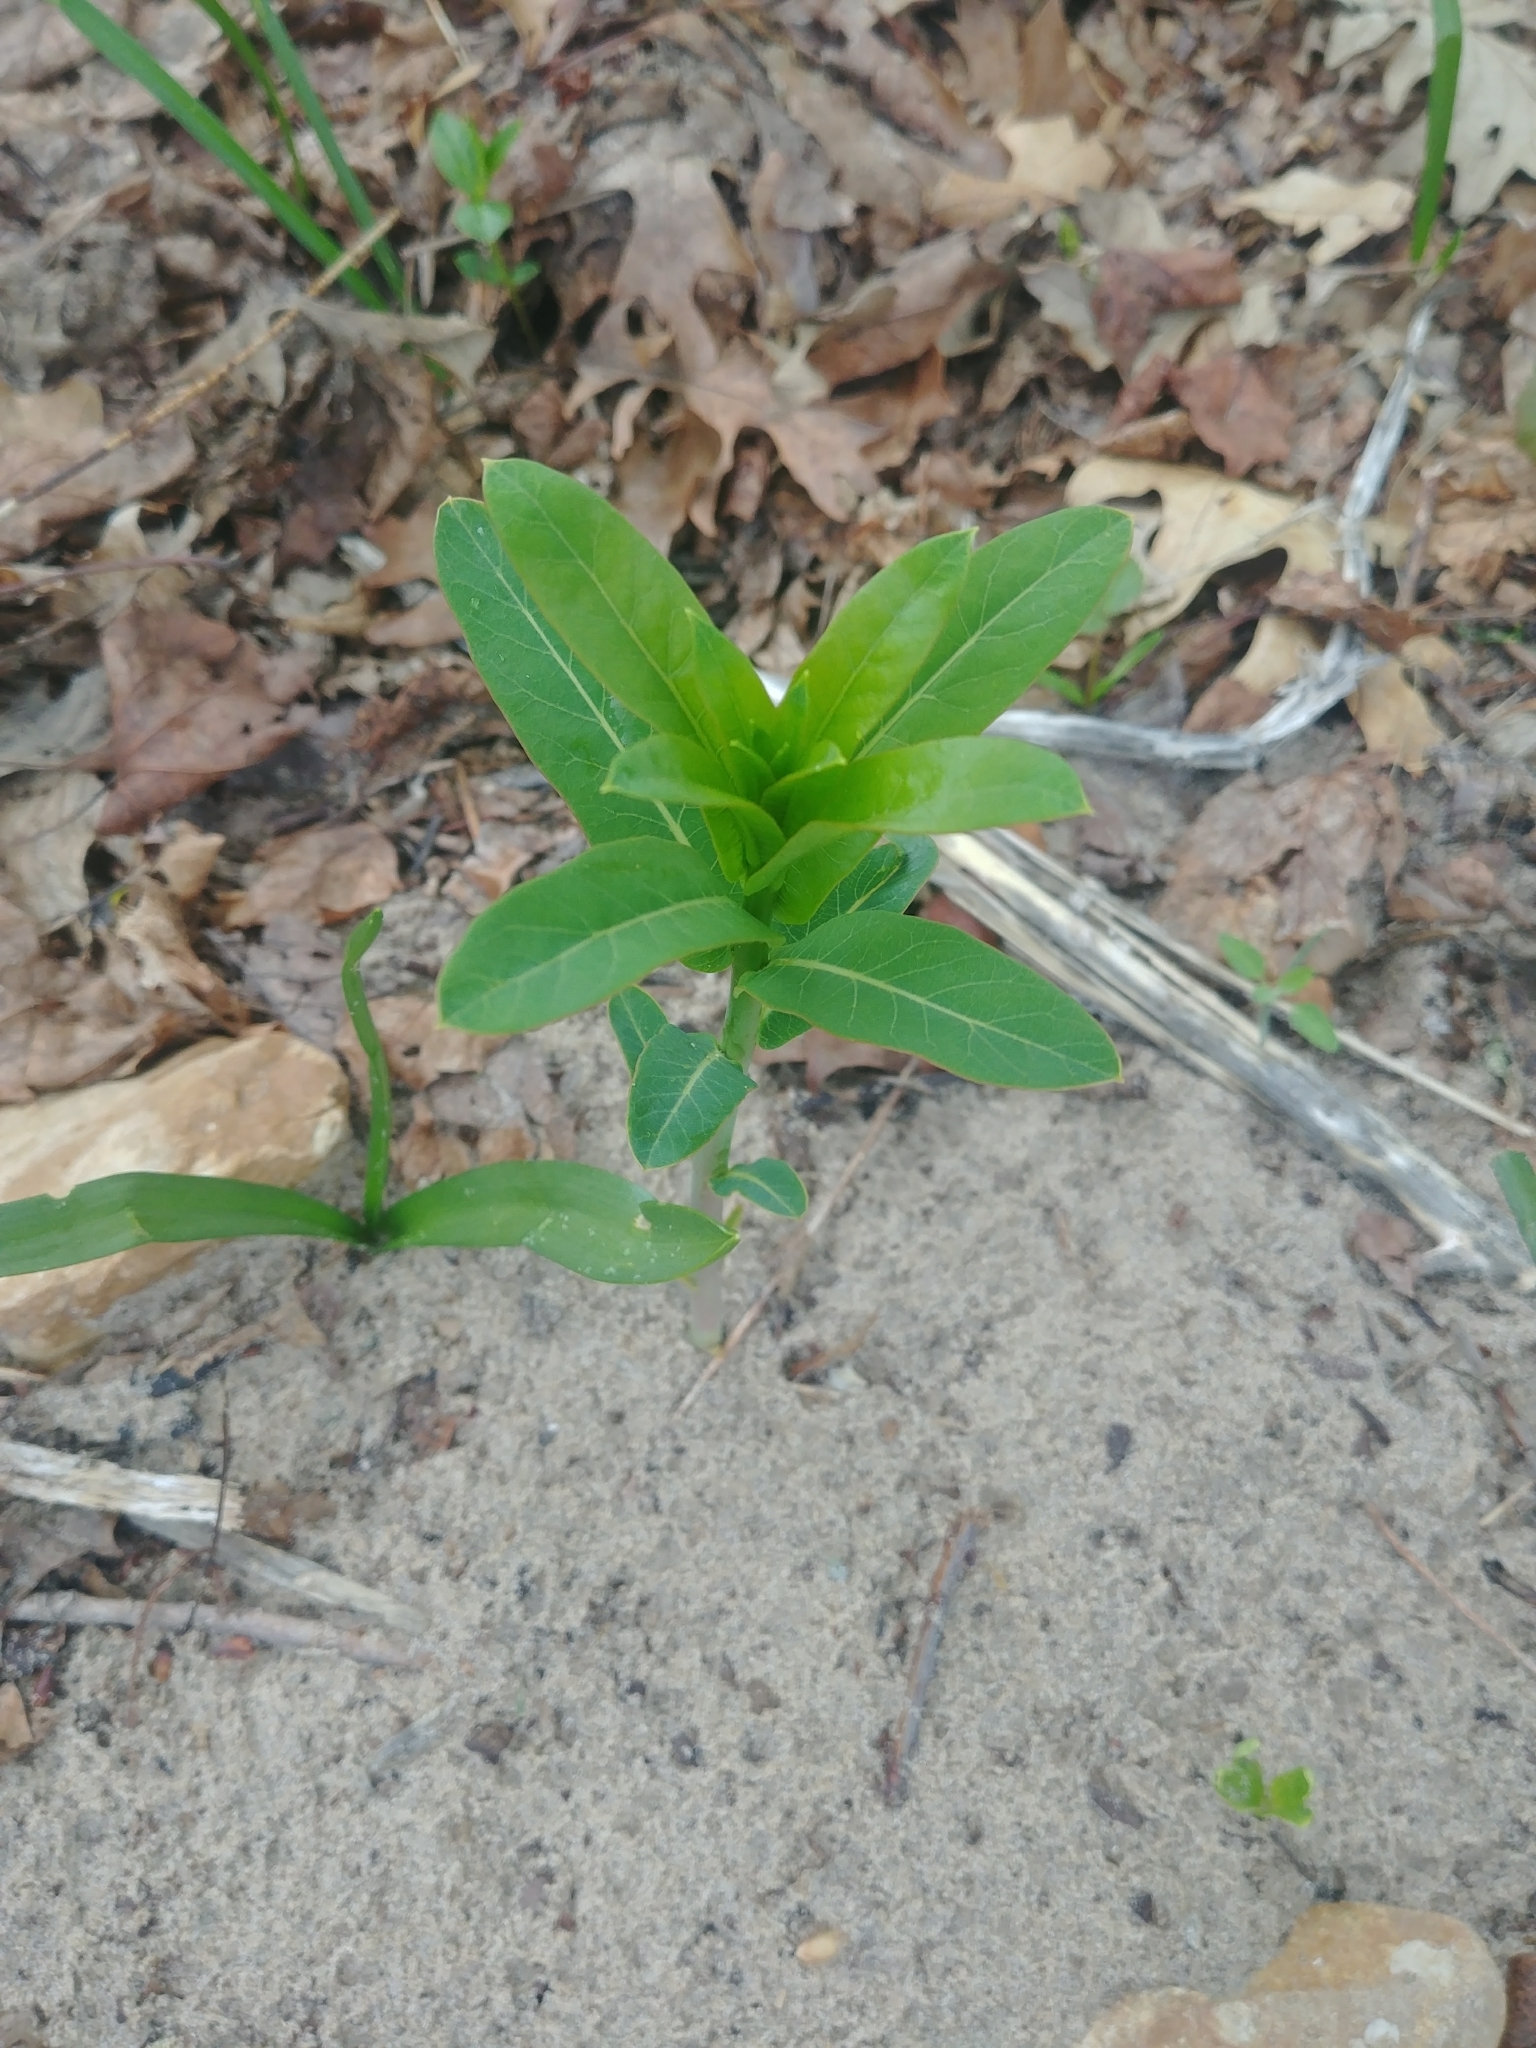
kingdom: Plantae
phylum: Tracheophyta
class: Magnoliopsida
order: Gentianales
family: Apocynaceae
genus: Apocynum
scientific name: Apocynum cannabinum
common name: Hemp dogbane
